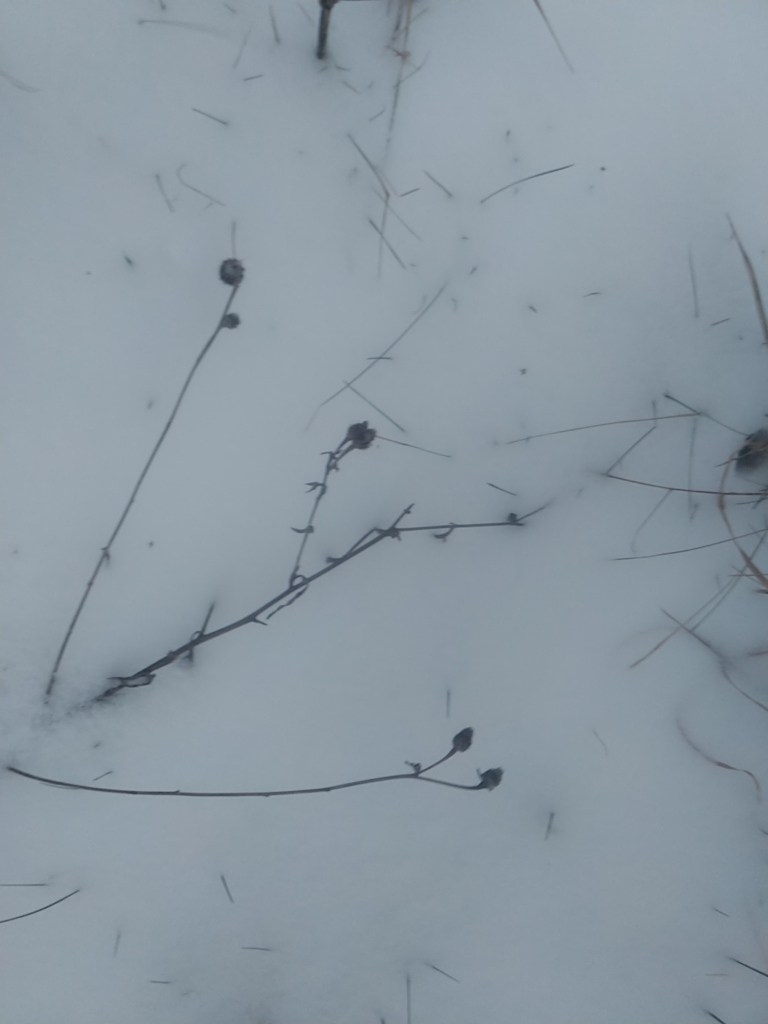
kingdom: Plantae
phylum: Tracheophyta
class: Magnoliopsida
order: Asterales
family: Asteraceae
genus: Centaurea
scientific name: Centaurea nigra
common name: Lesser knapweed
